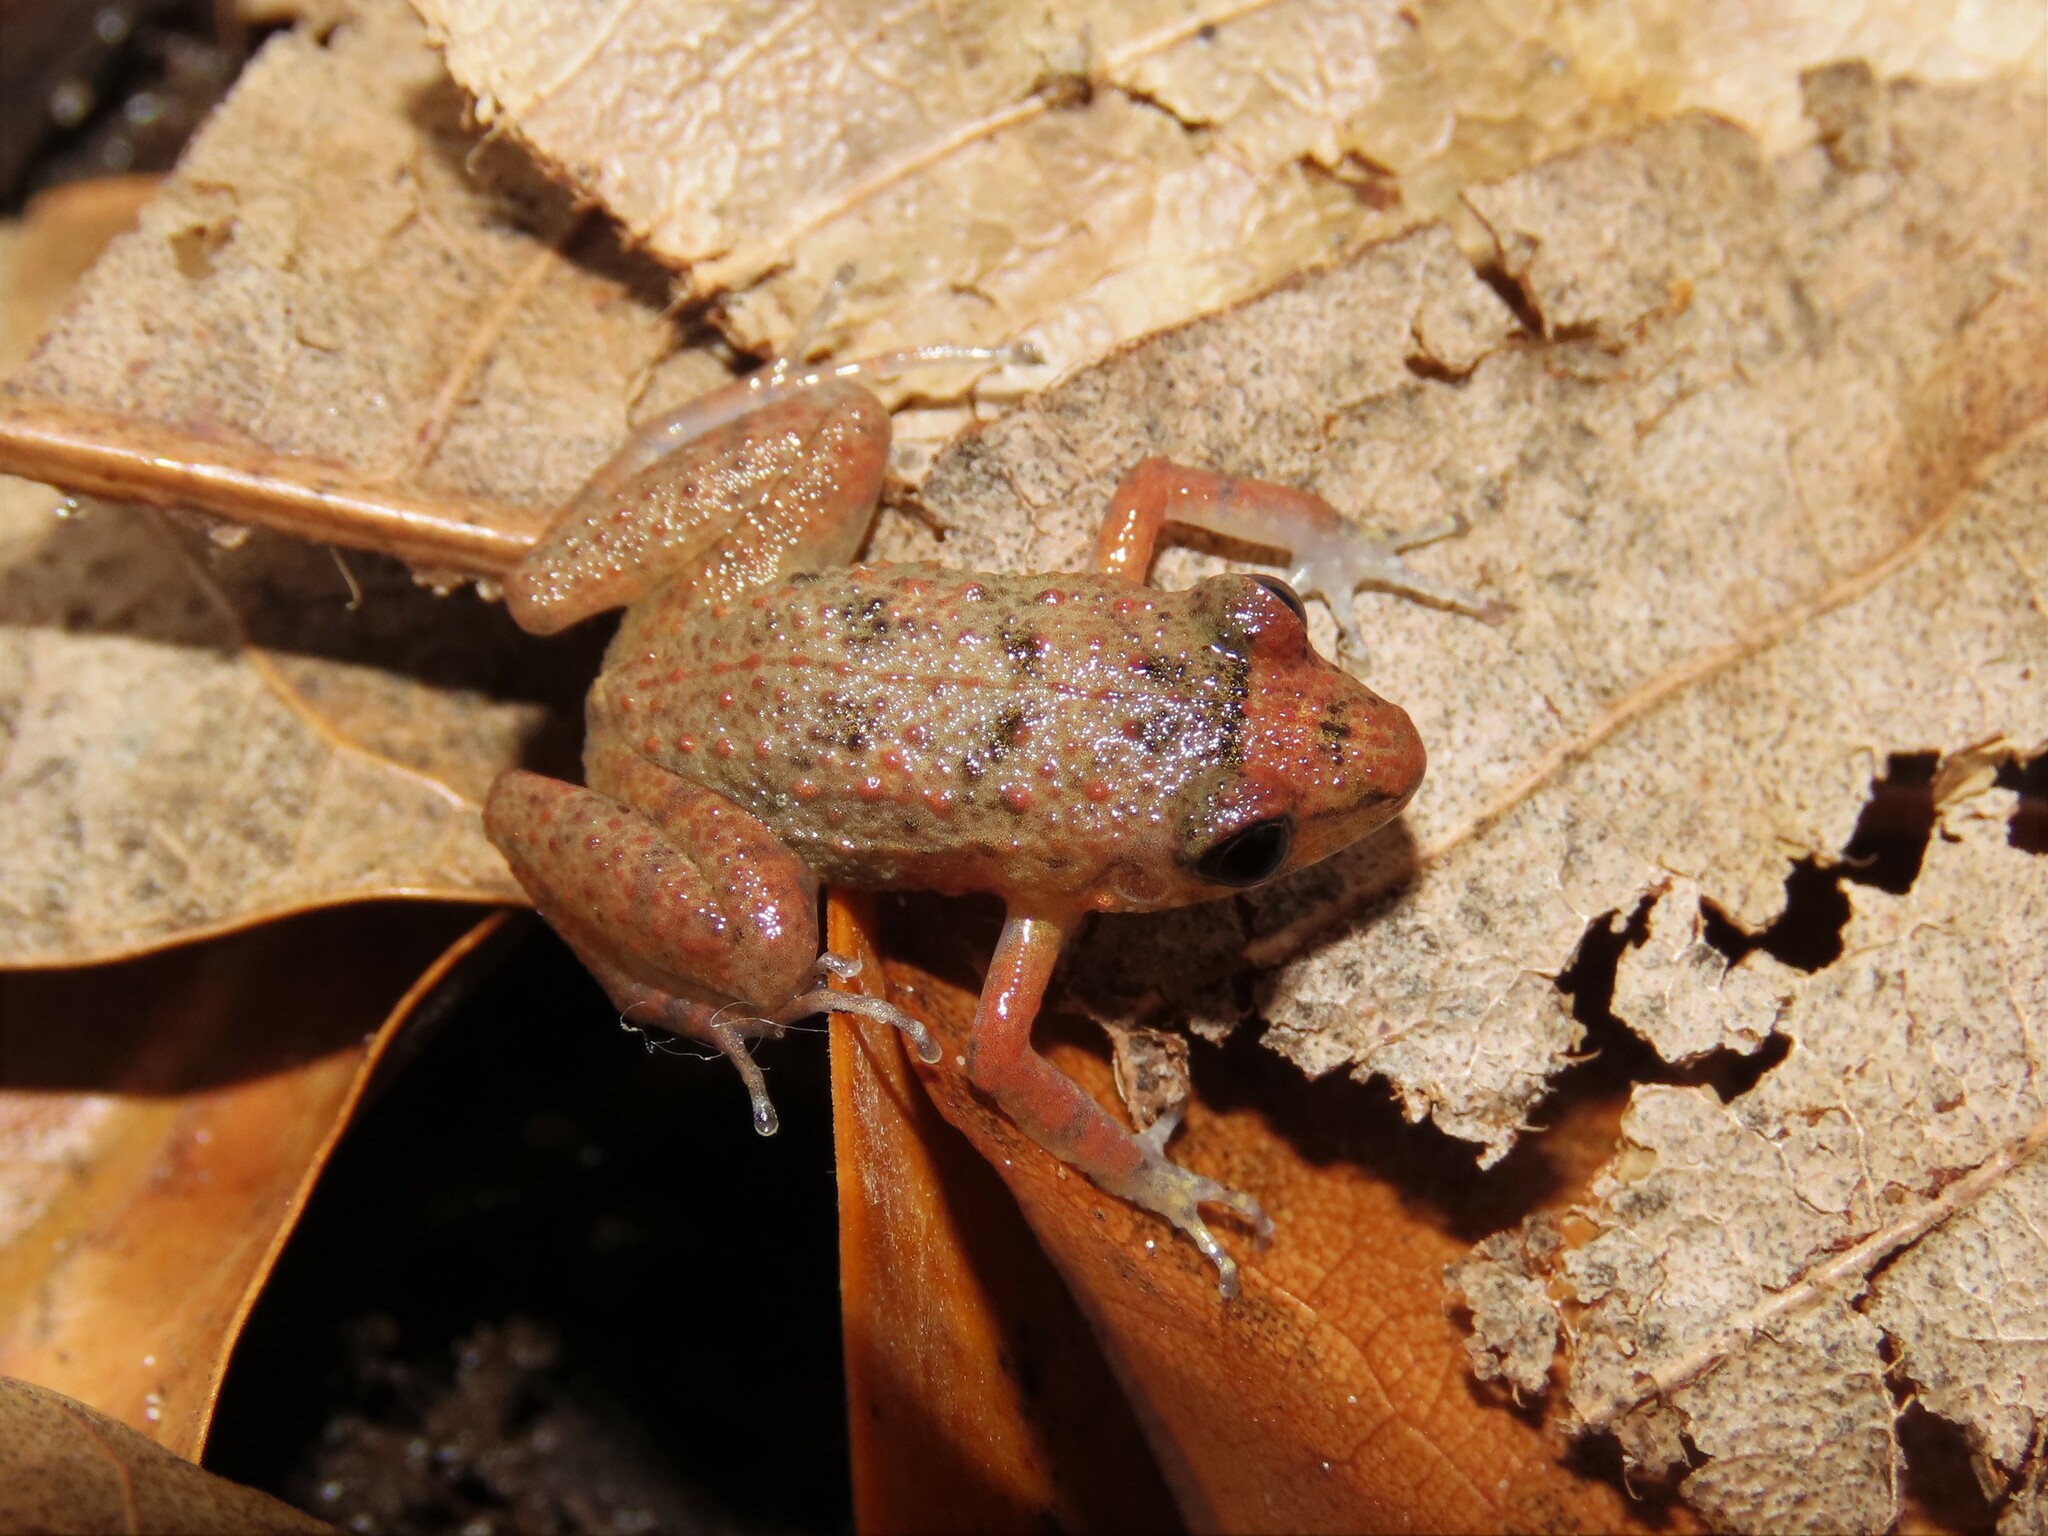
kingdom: Animalia
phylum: Chordata
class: Amphibia
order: Anura
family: Eleutherodactylidae
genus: Eleutherodactylus
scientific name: Eleutherodactylus planirostris
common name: Greenhouse frog
